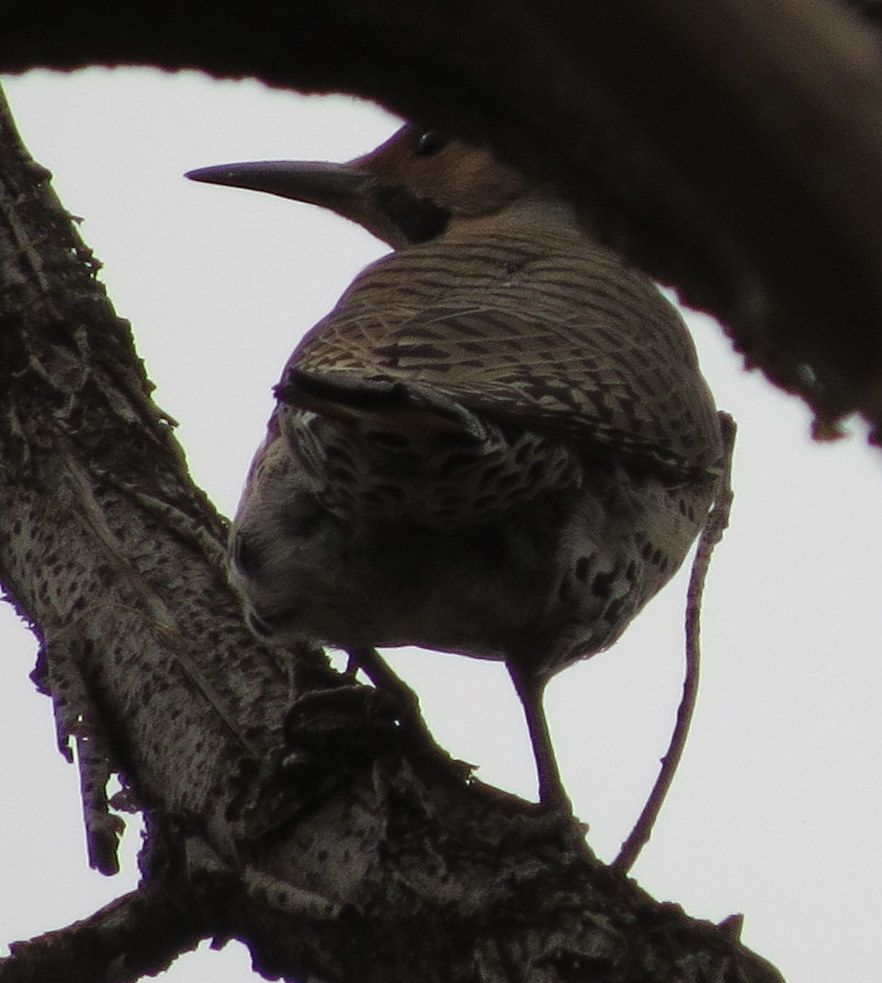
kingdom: Animalia
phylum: Chordata
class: Aves
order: Piciformes
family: Picidae
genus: Colaptes
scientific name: Colaptes auratus
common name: Northern flicker
